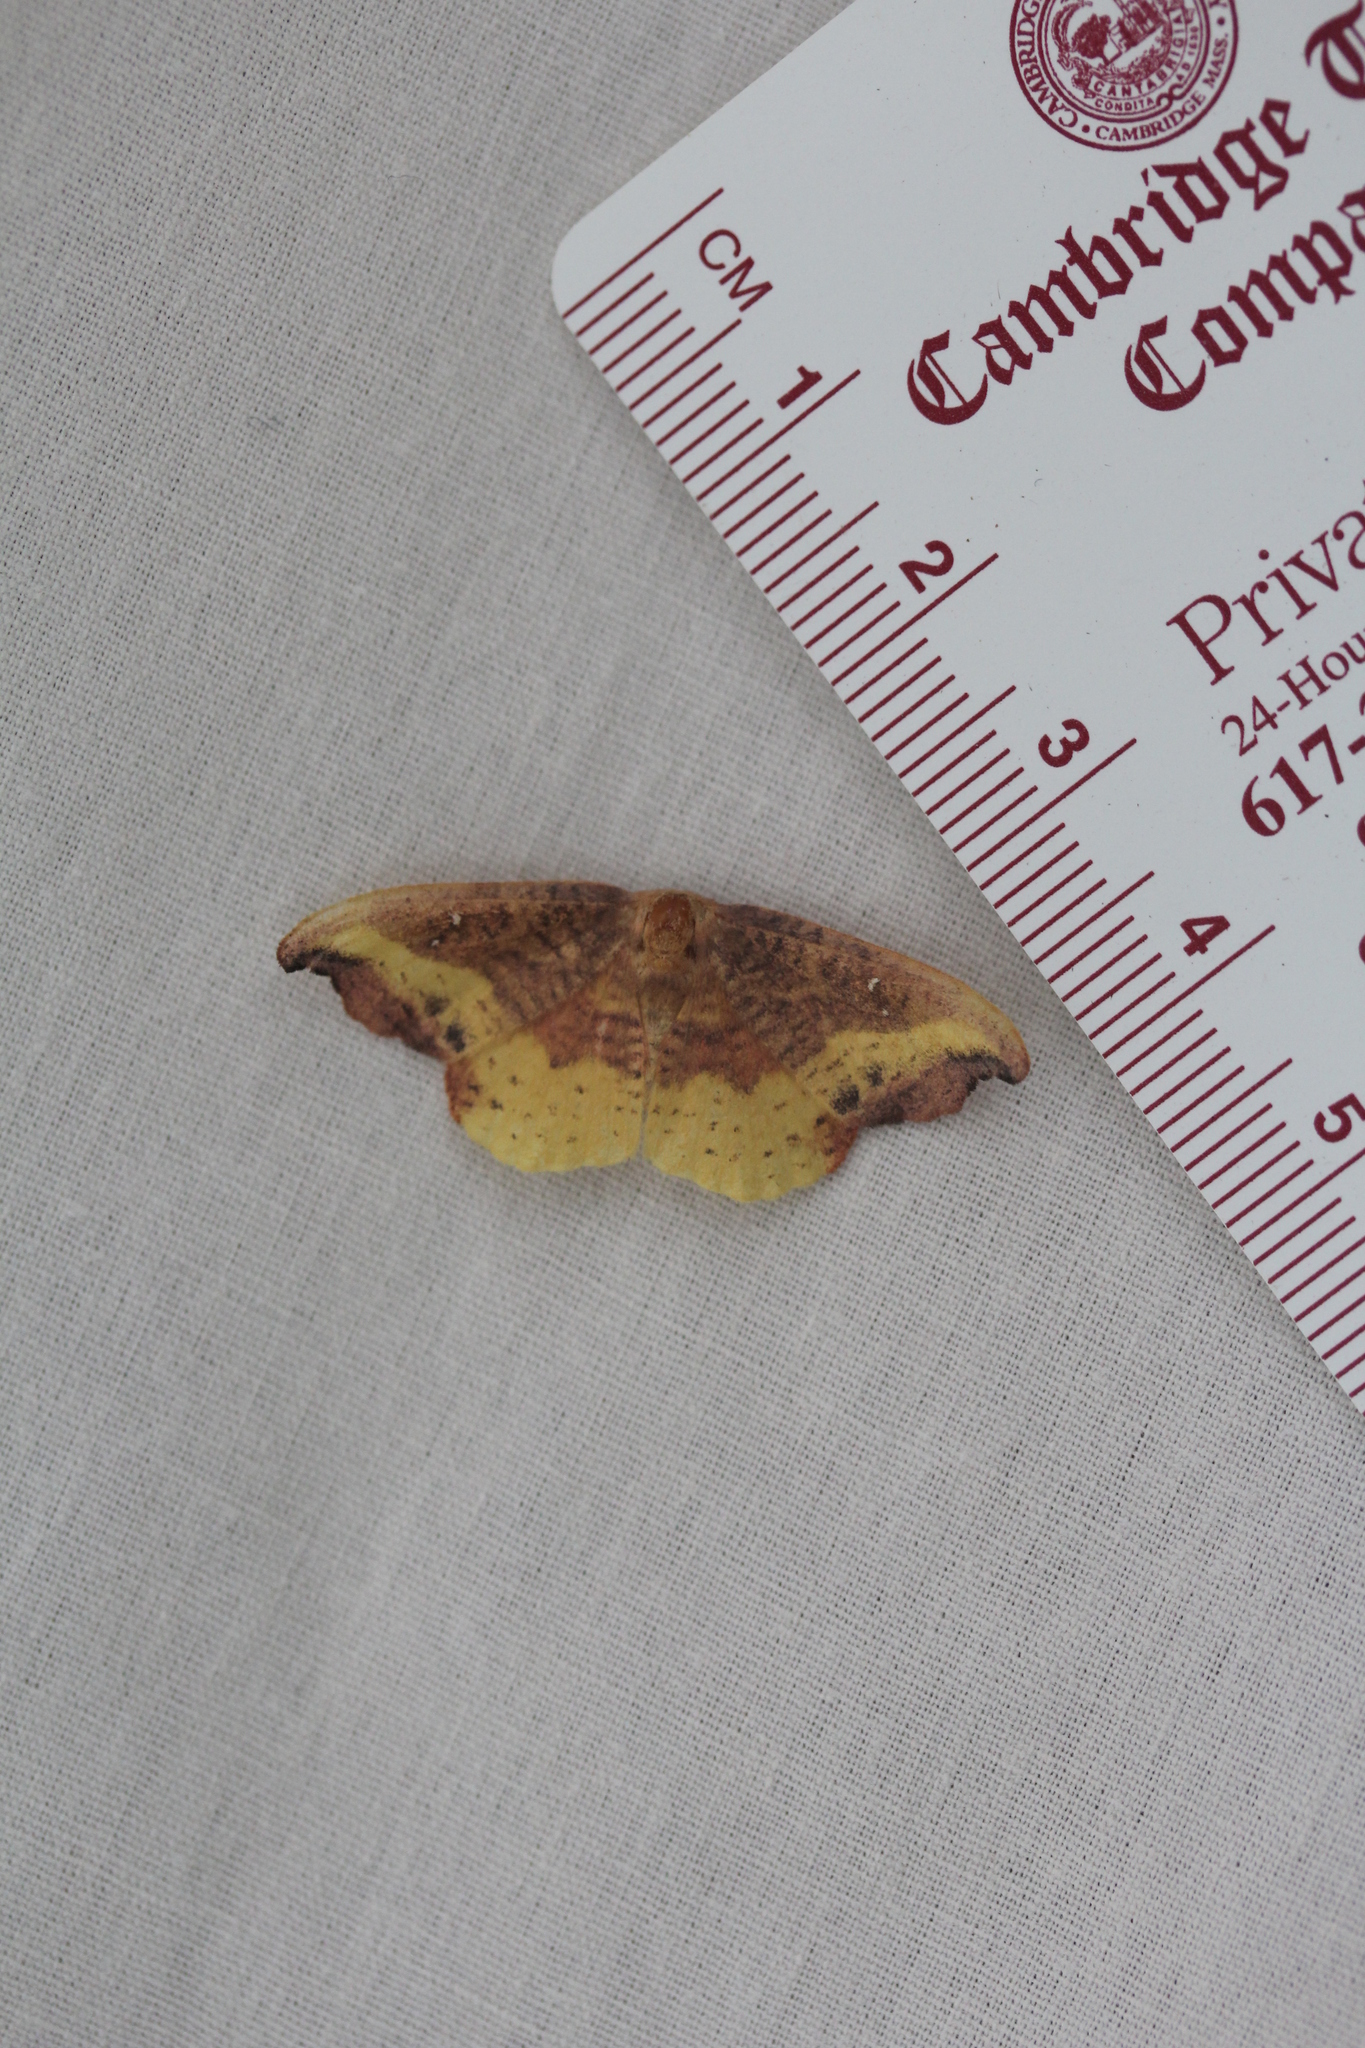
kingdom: Animalia
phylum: Arthropoda
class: Insecta
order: Lepidoptera
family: Drepanidae
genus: Oreta
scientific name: Oreta rosea
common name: Rose hooktip
